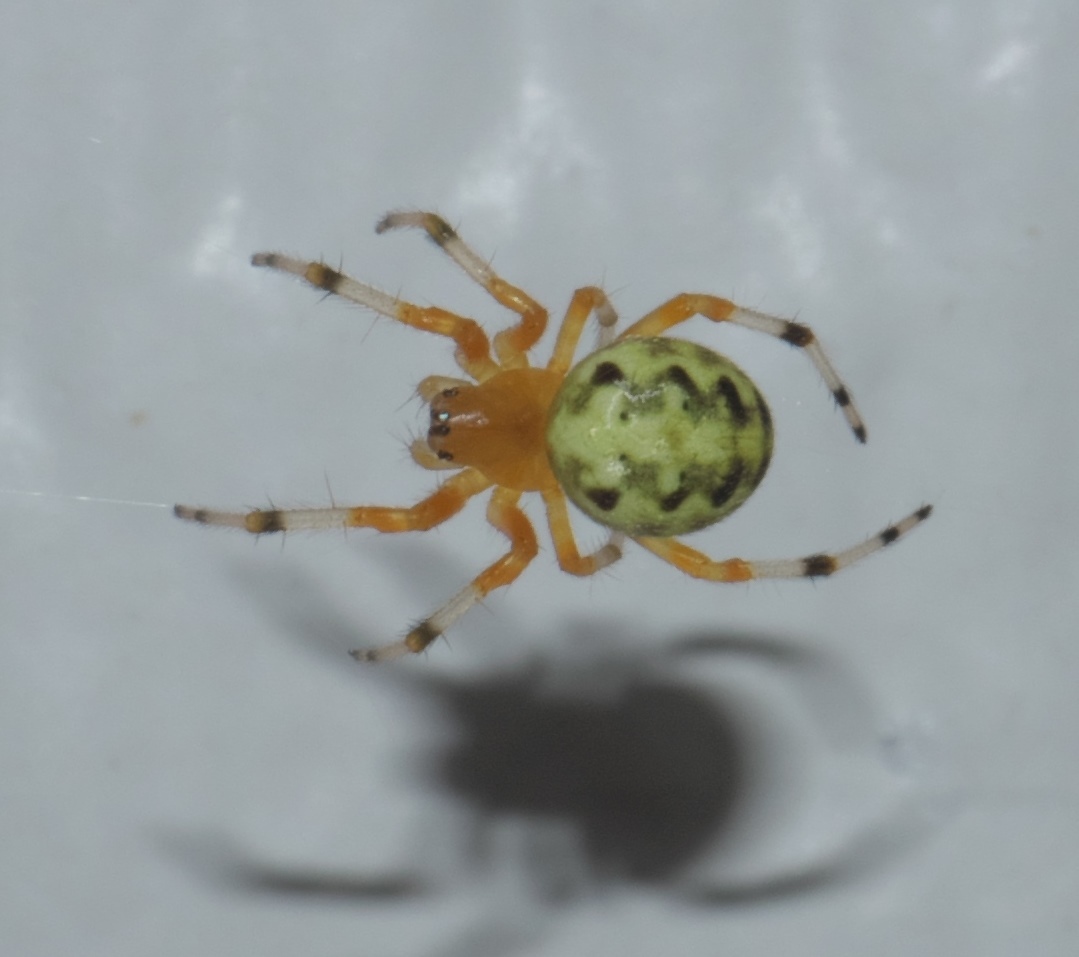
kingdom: Animalia
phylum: Arthropoda
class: Arachnida
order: Araneae
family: Araneidae
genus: Araneus
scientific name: Araneus marmoreus
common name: Marbled orbweaver
